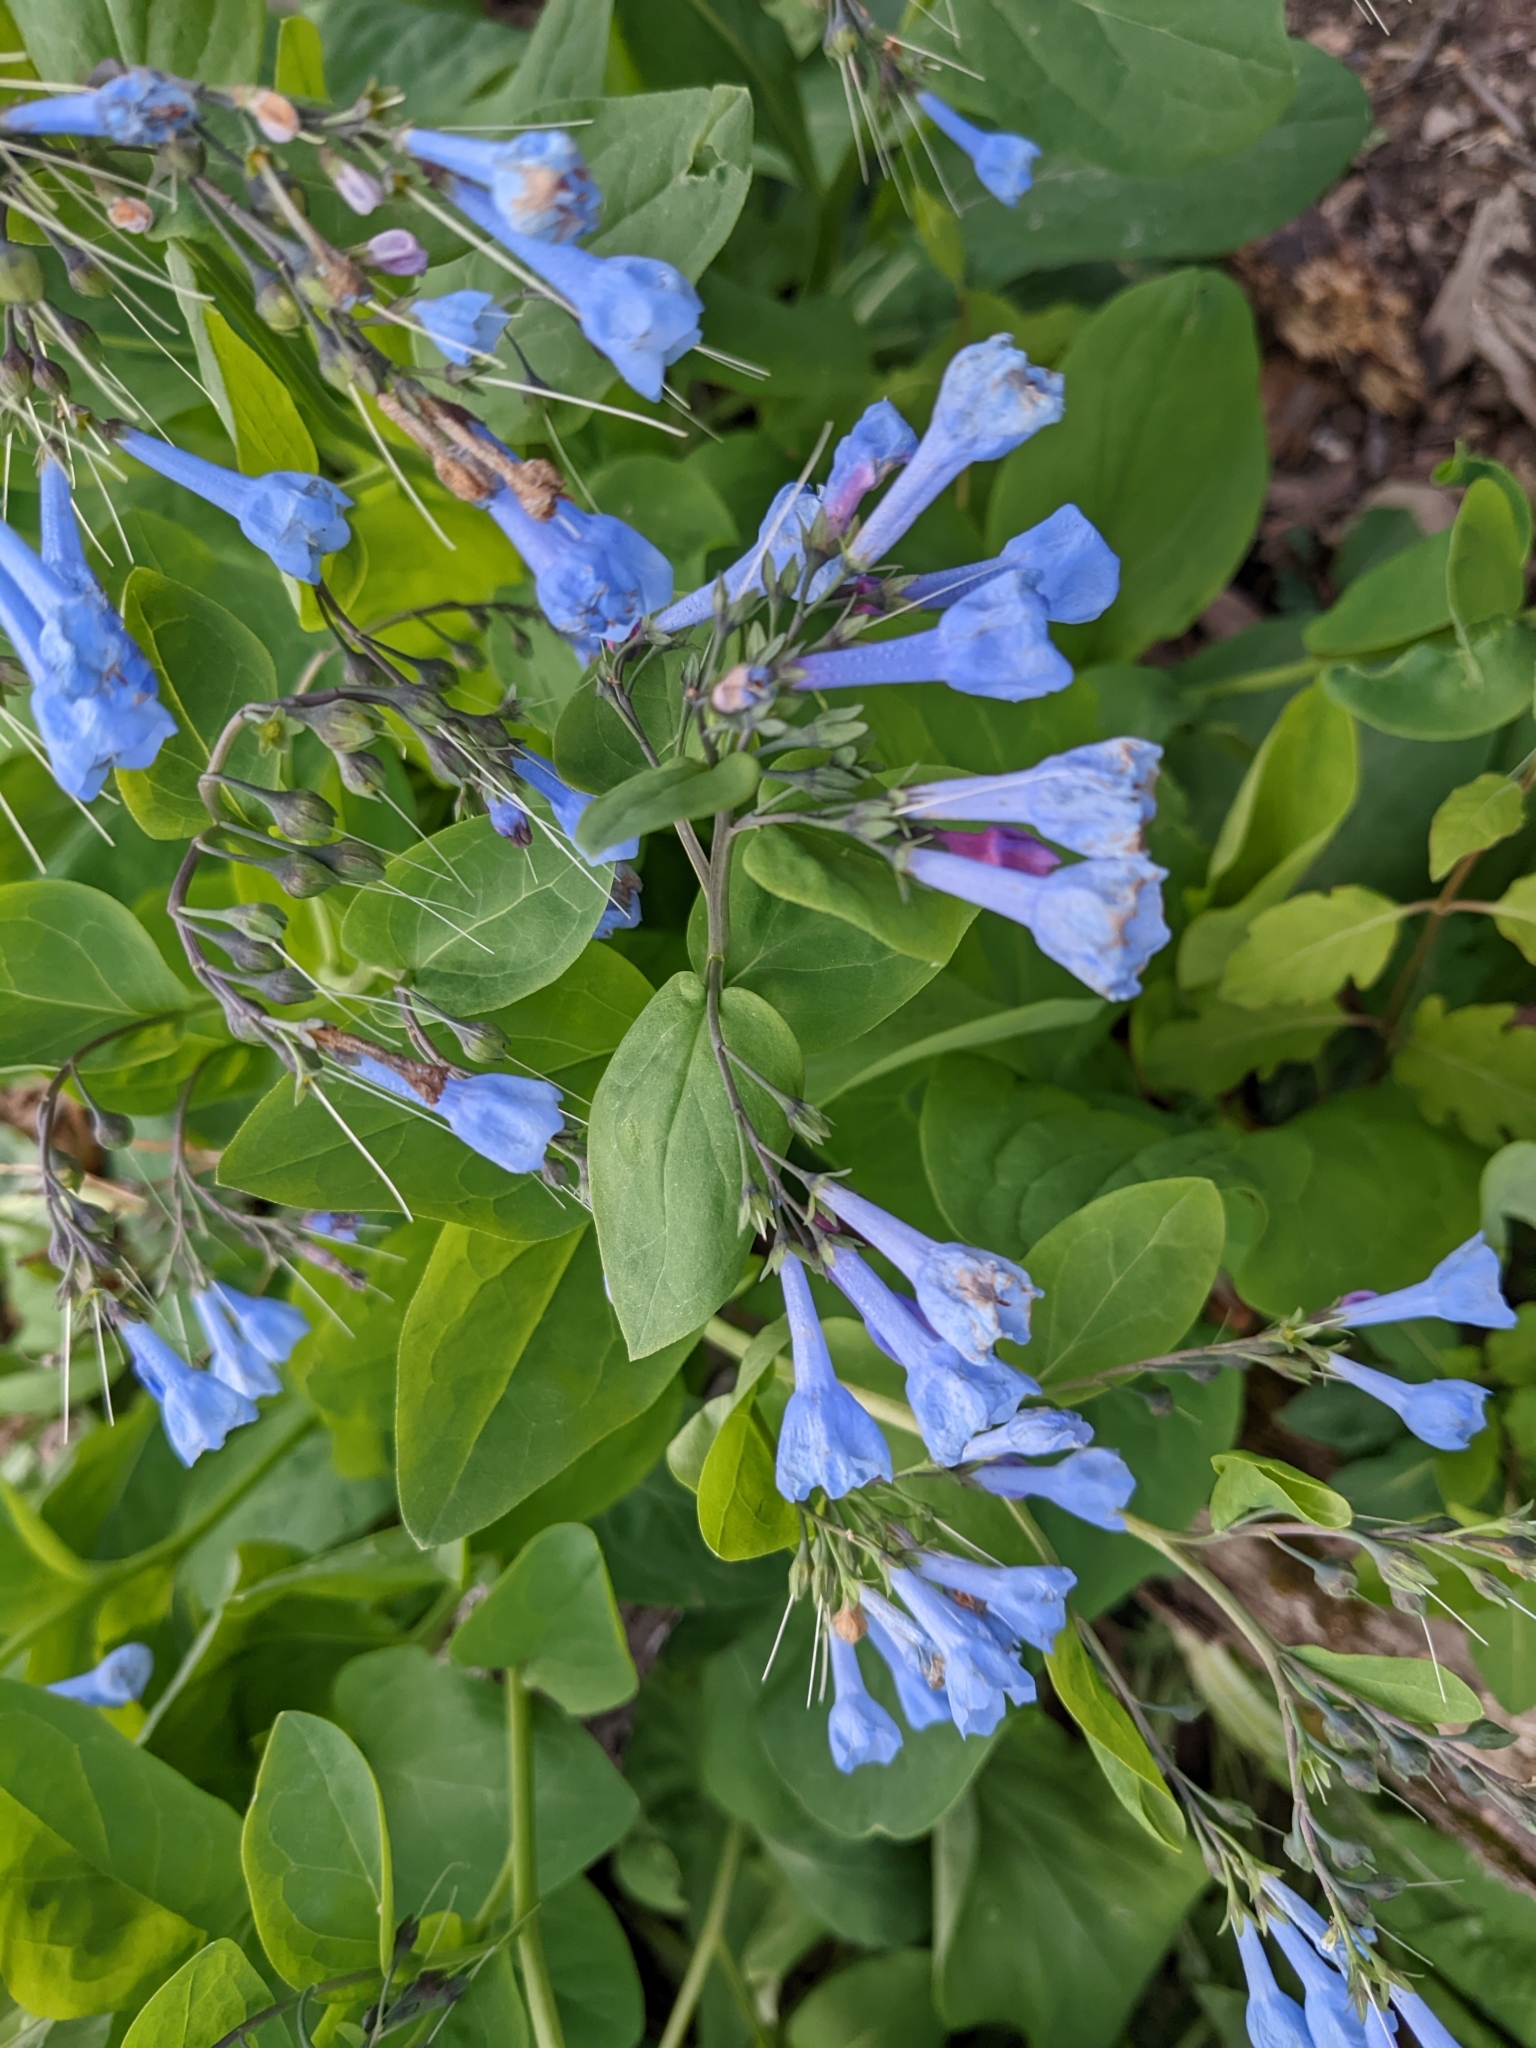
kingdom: Plantae
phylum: Tracheophyta
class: Magnoliopsida
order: Boraginales
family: Boraginaceae
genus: Mertensia
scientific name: Mertensia virginica
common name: Virginia bluebells
